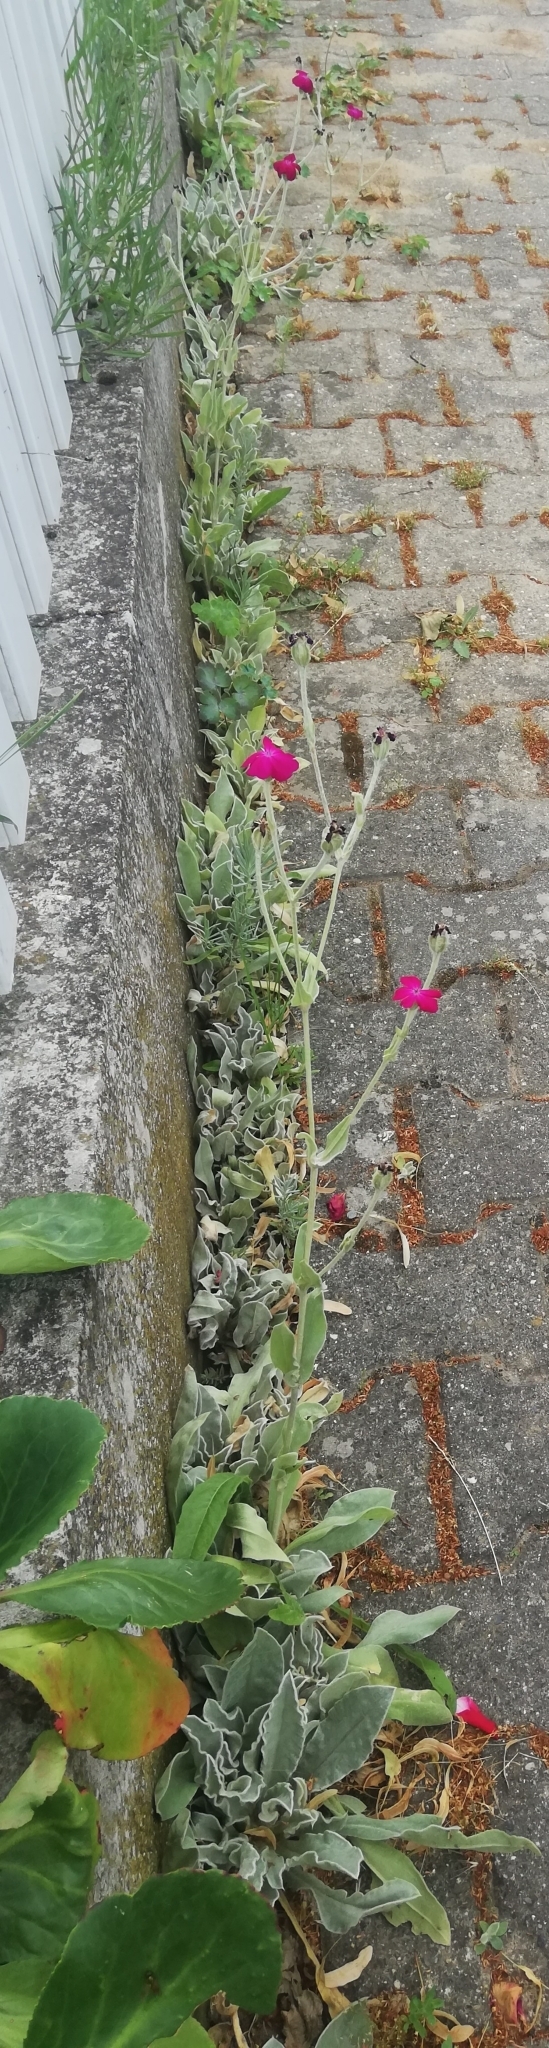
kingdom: Plantae
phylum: Tracheophyta
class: Magnoliopsida
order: Caryophyllales
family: Caryophyllaceae
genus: Silene
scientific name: Silene coronaria
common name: Rose campion
